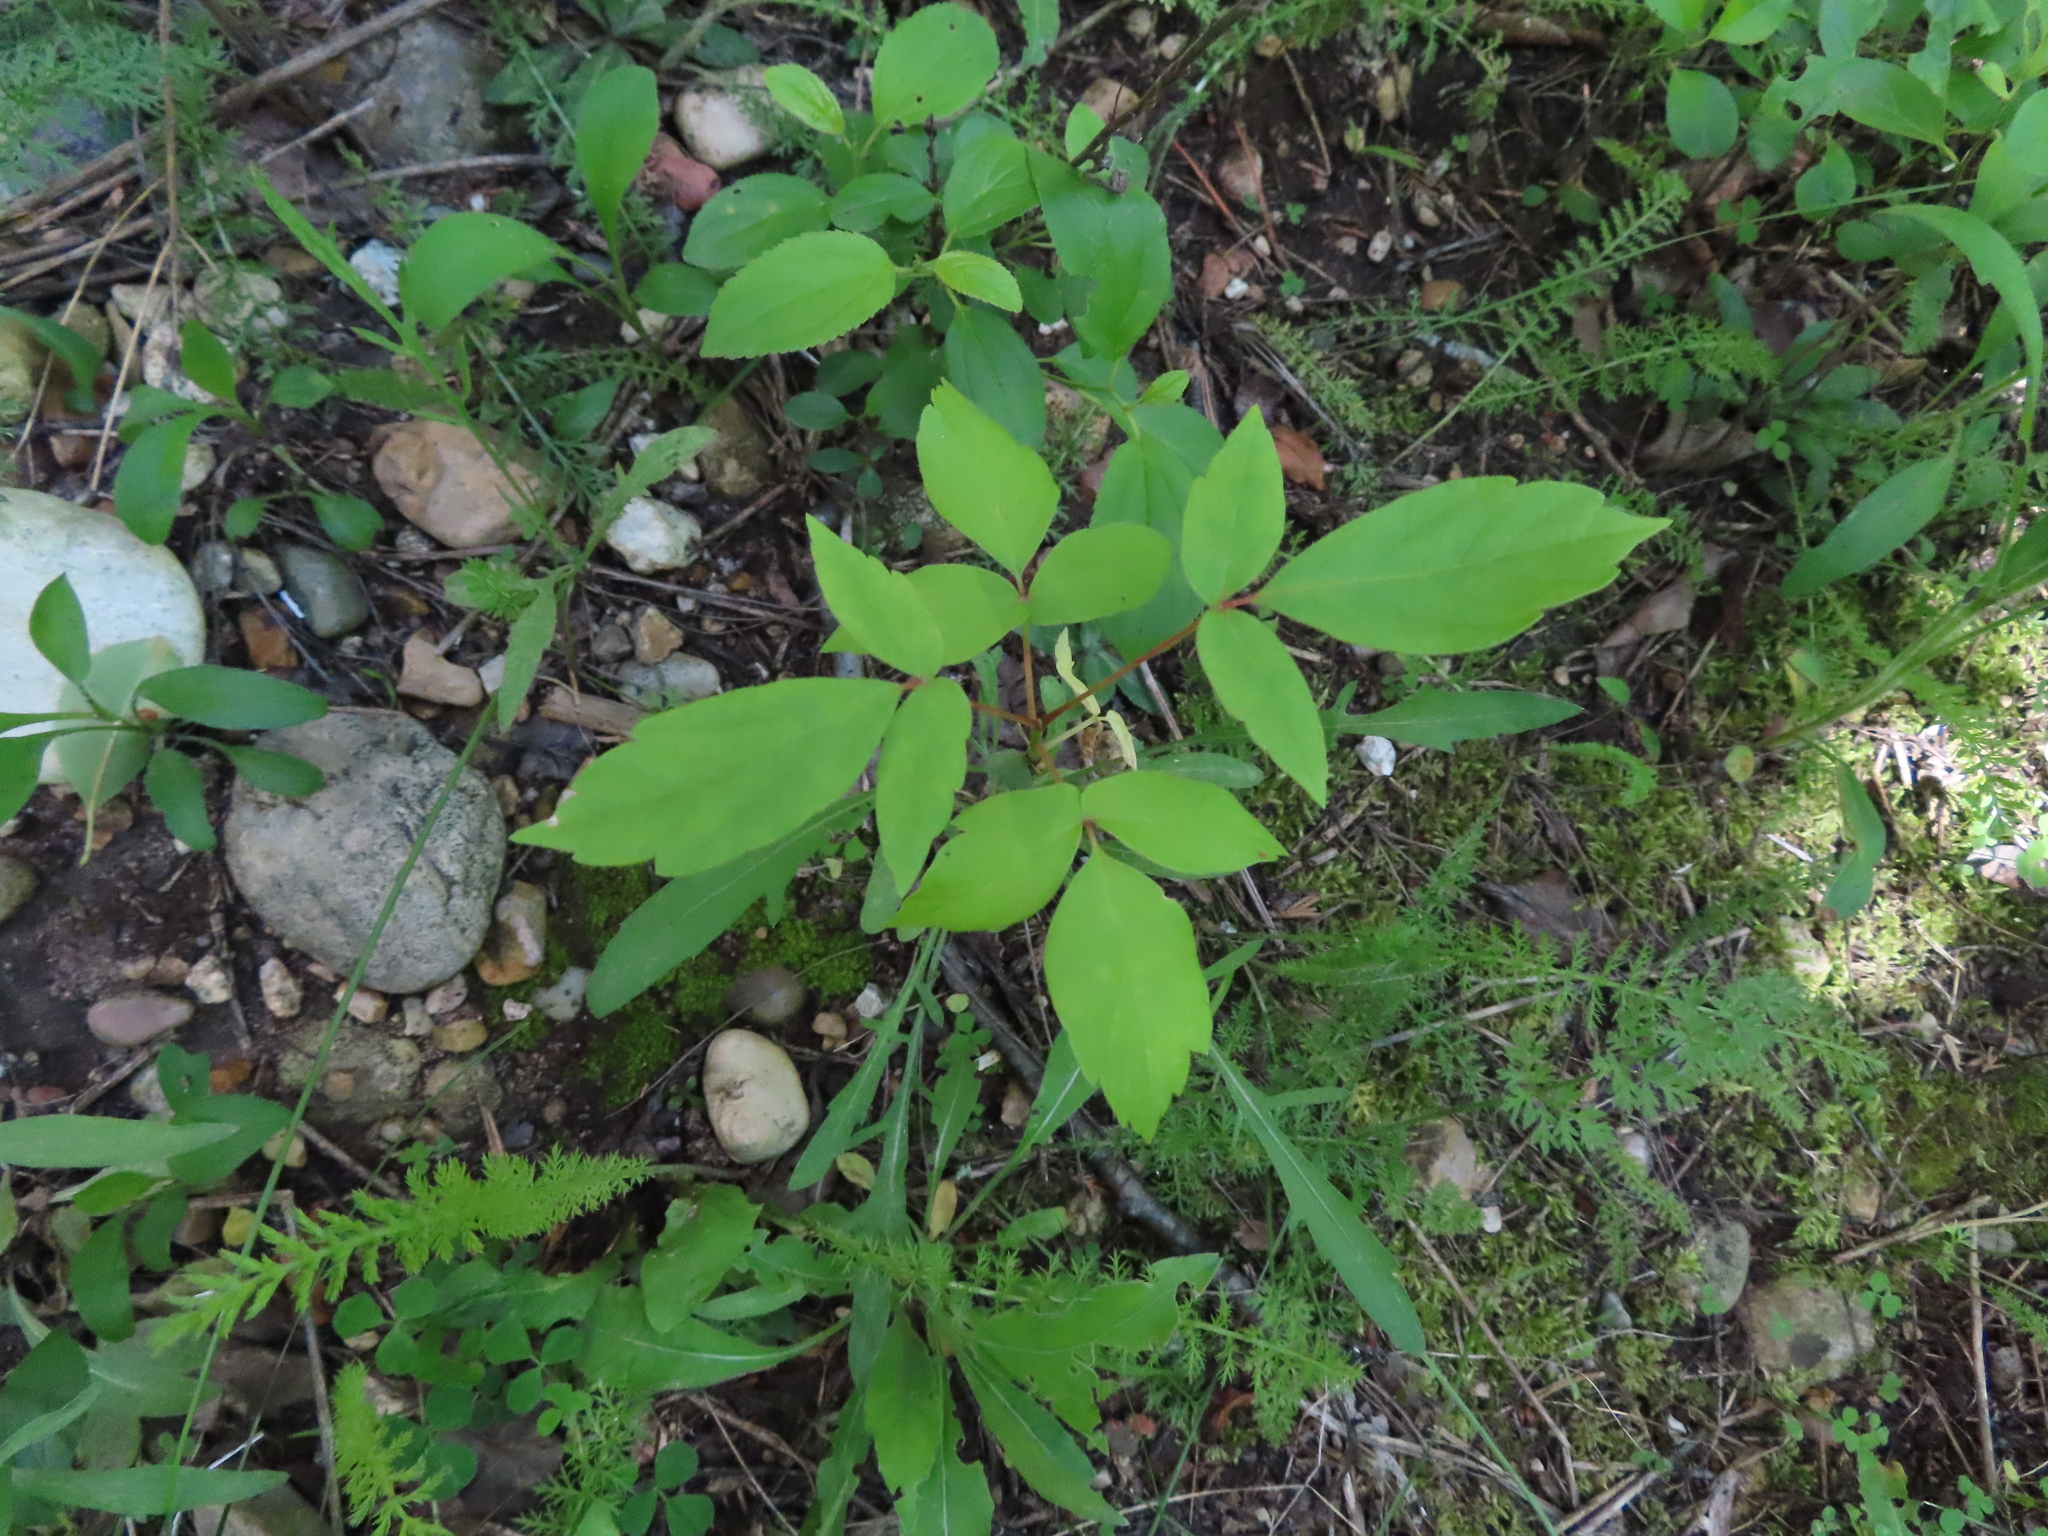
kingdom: Plantae
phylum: Tracheophyta
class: Magnoliopsida
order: Sapindales
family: Sapindaceae
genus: Acer
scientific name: Acer negundo
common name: Ashleaf maple
